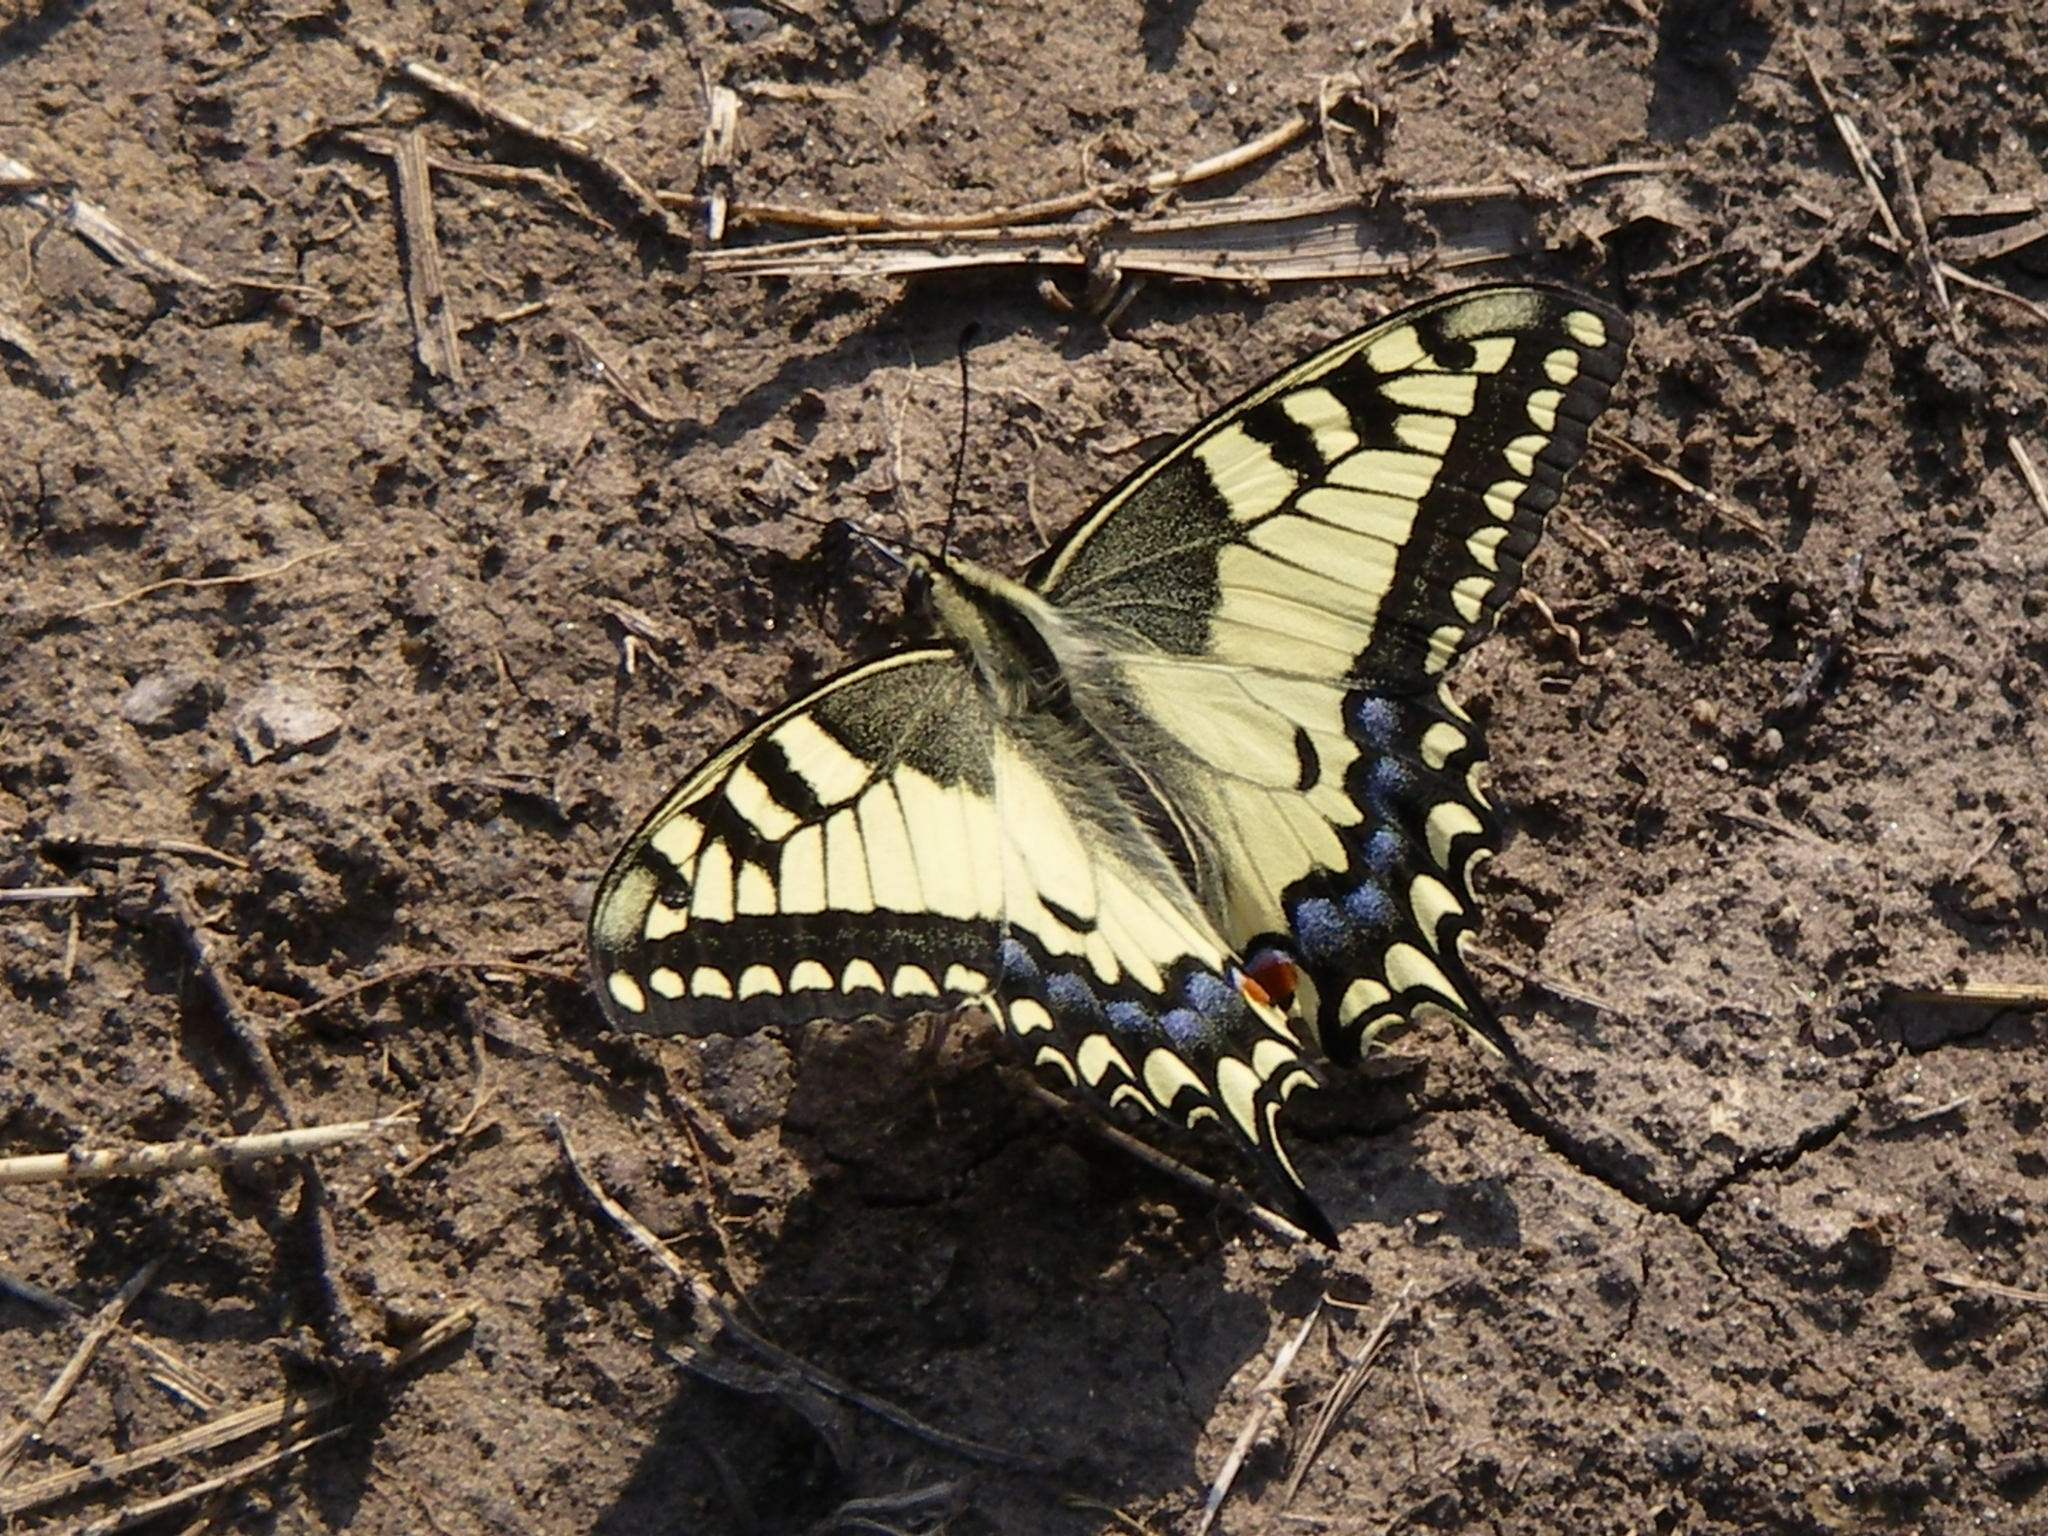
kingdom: Animalia
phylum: Arthropoda
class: Insecta
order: Lepidoptera
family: Papilionidae
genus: Papilio
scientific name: Papilio machaon
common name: Swallowtail
